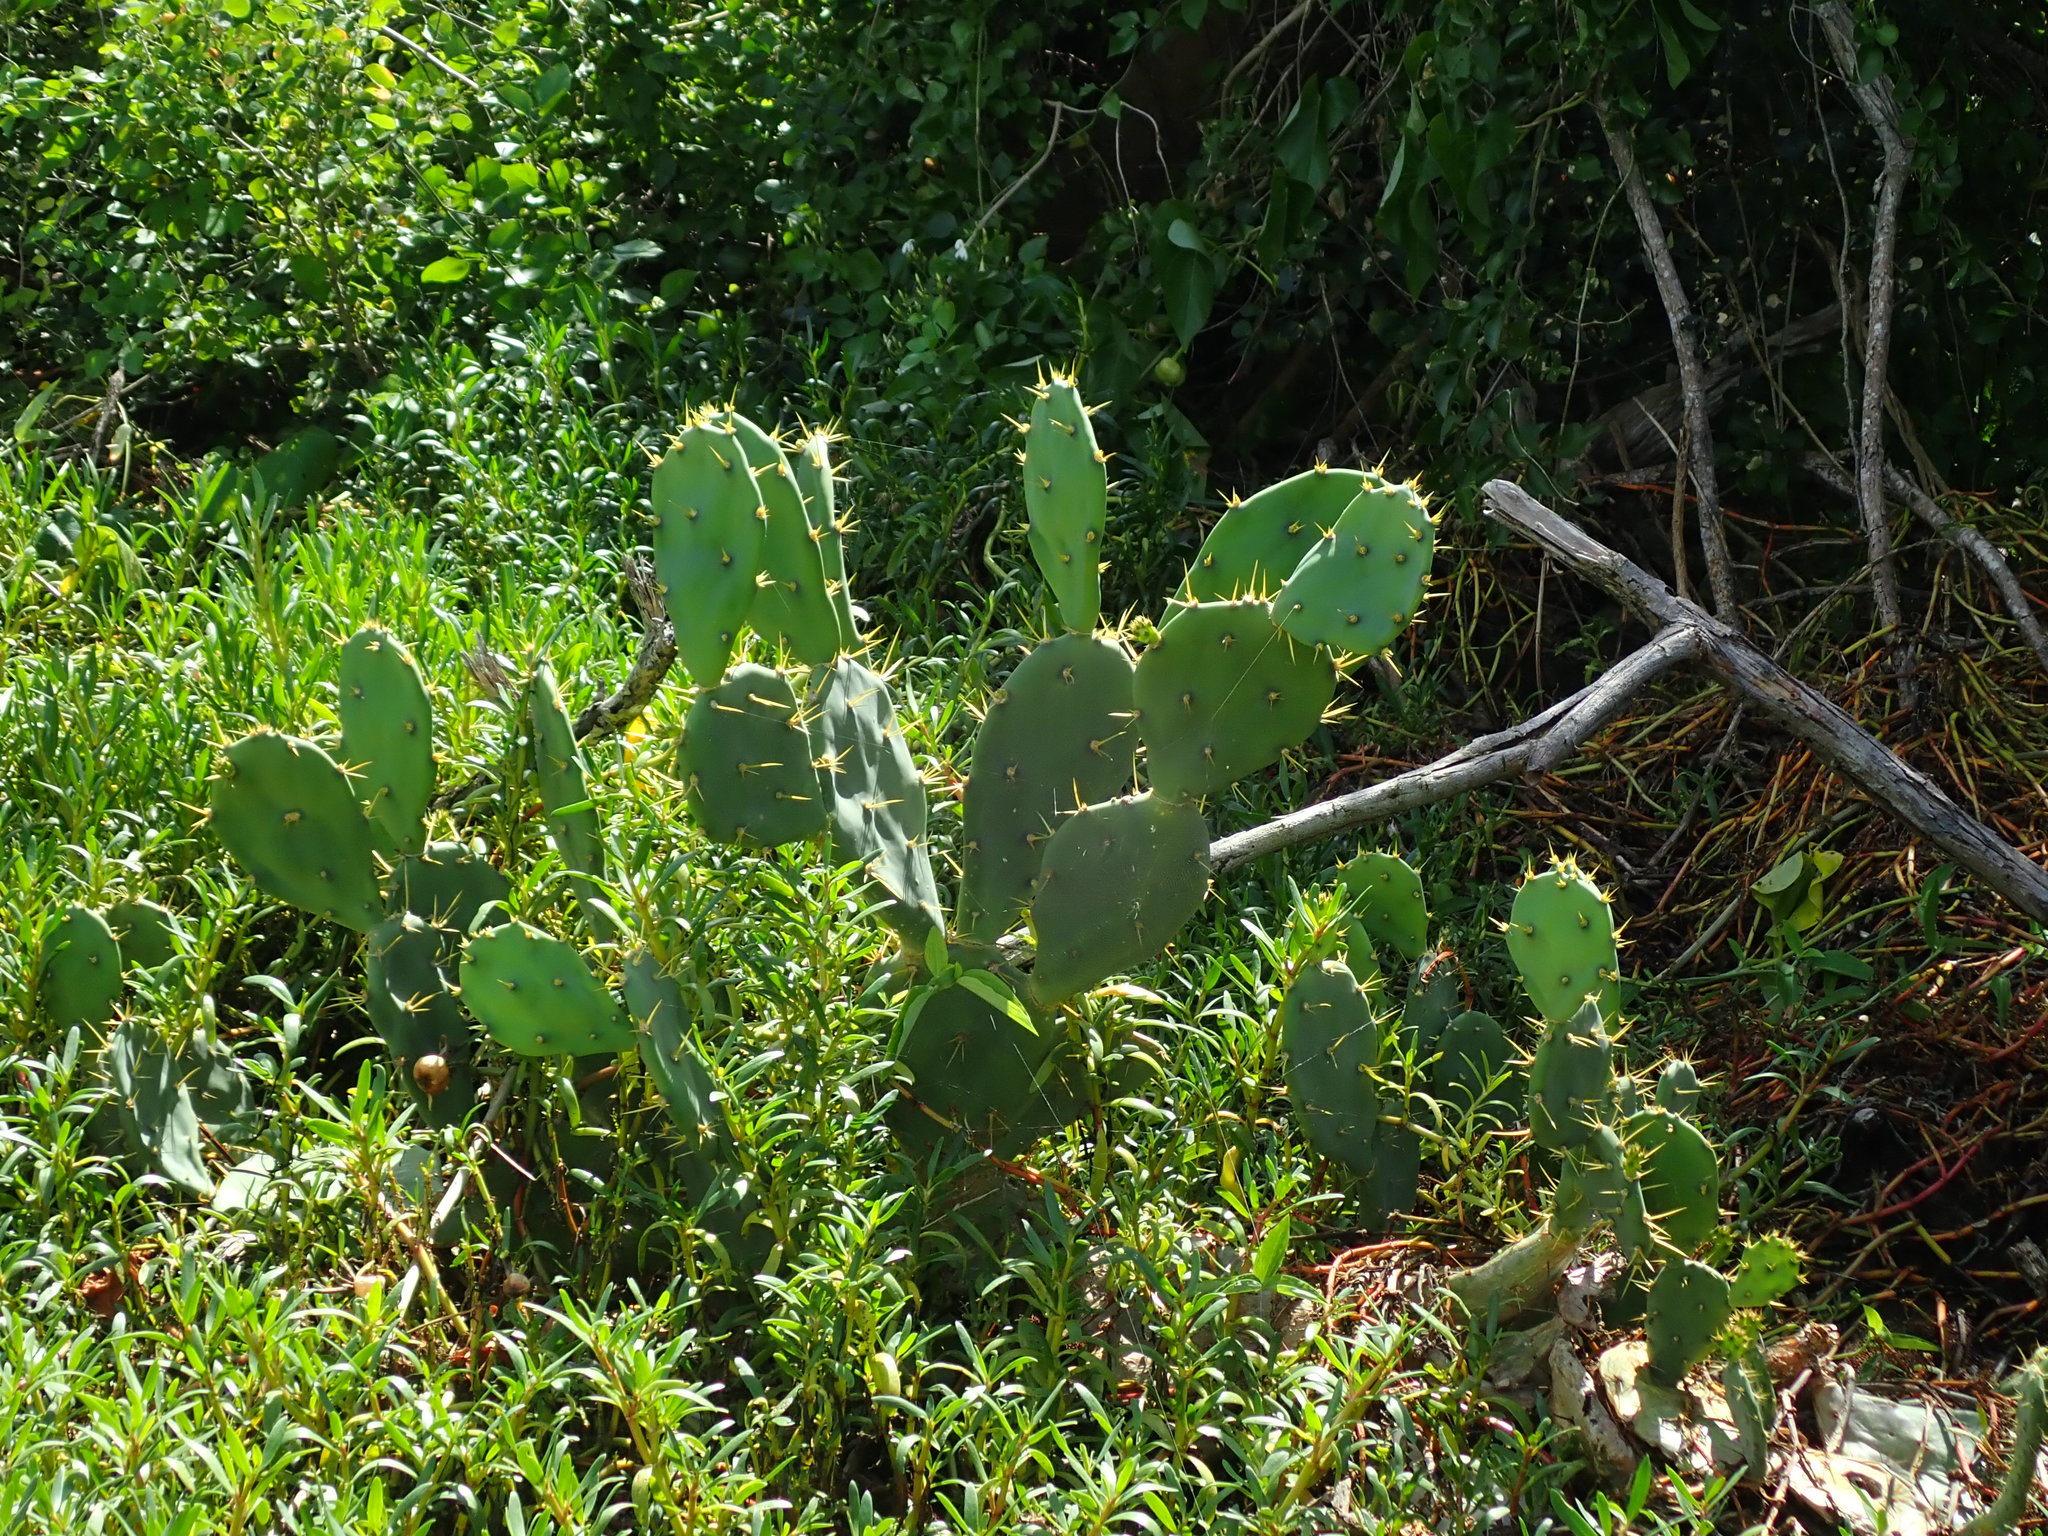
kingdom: Plantae
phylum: Tracheophyta
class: Magnoliopsida
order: Caryophyllales
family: Cactaceae
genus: Opuntia
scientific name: Opuntia stricta
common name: Erect pricklypear
